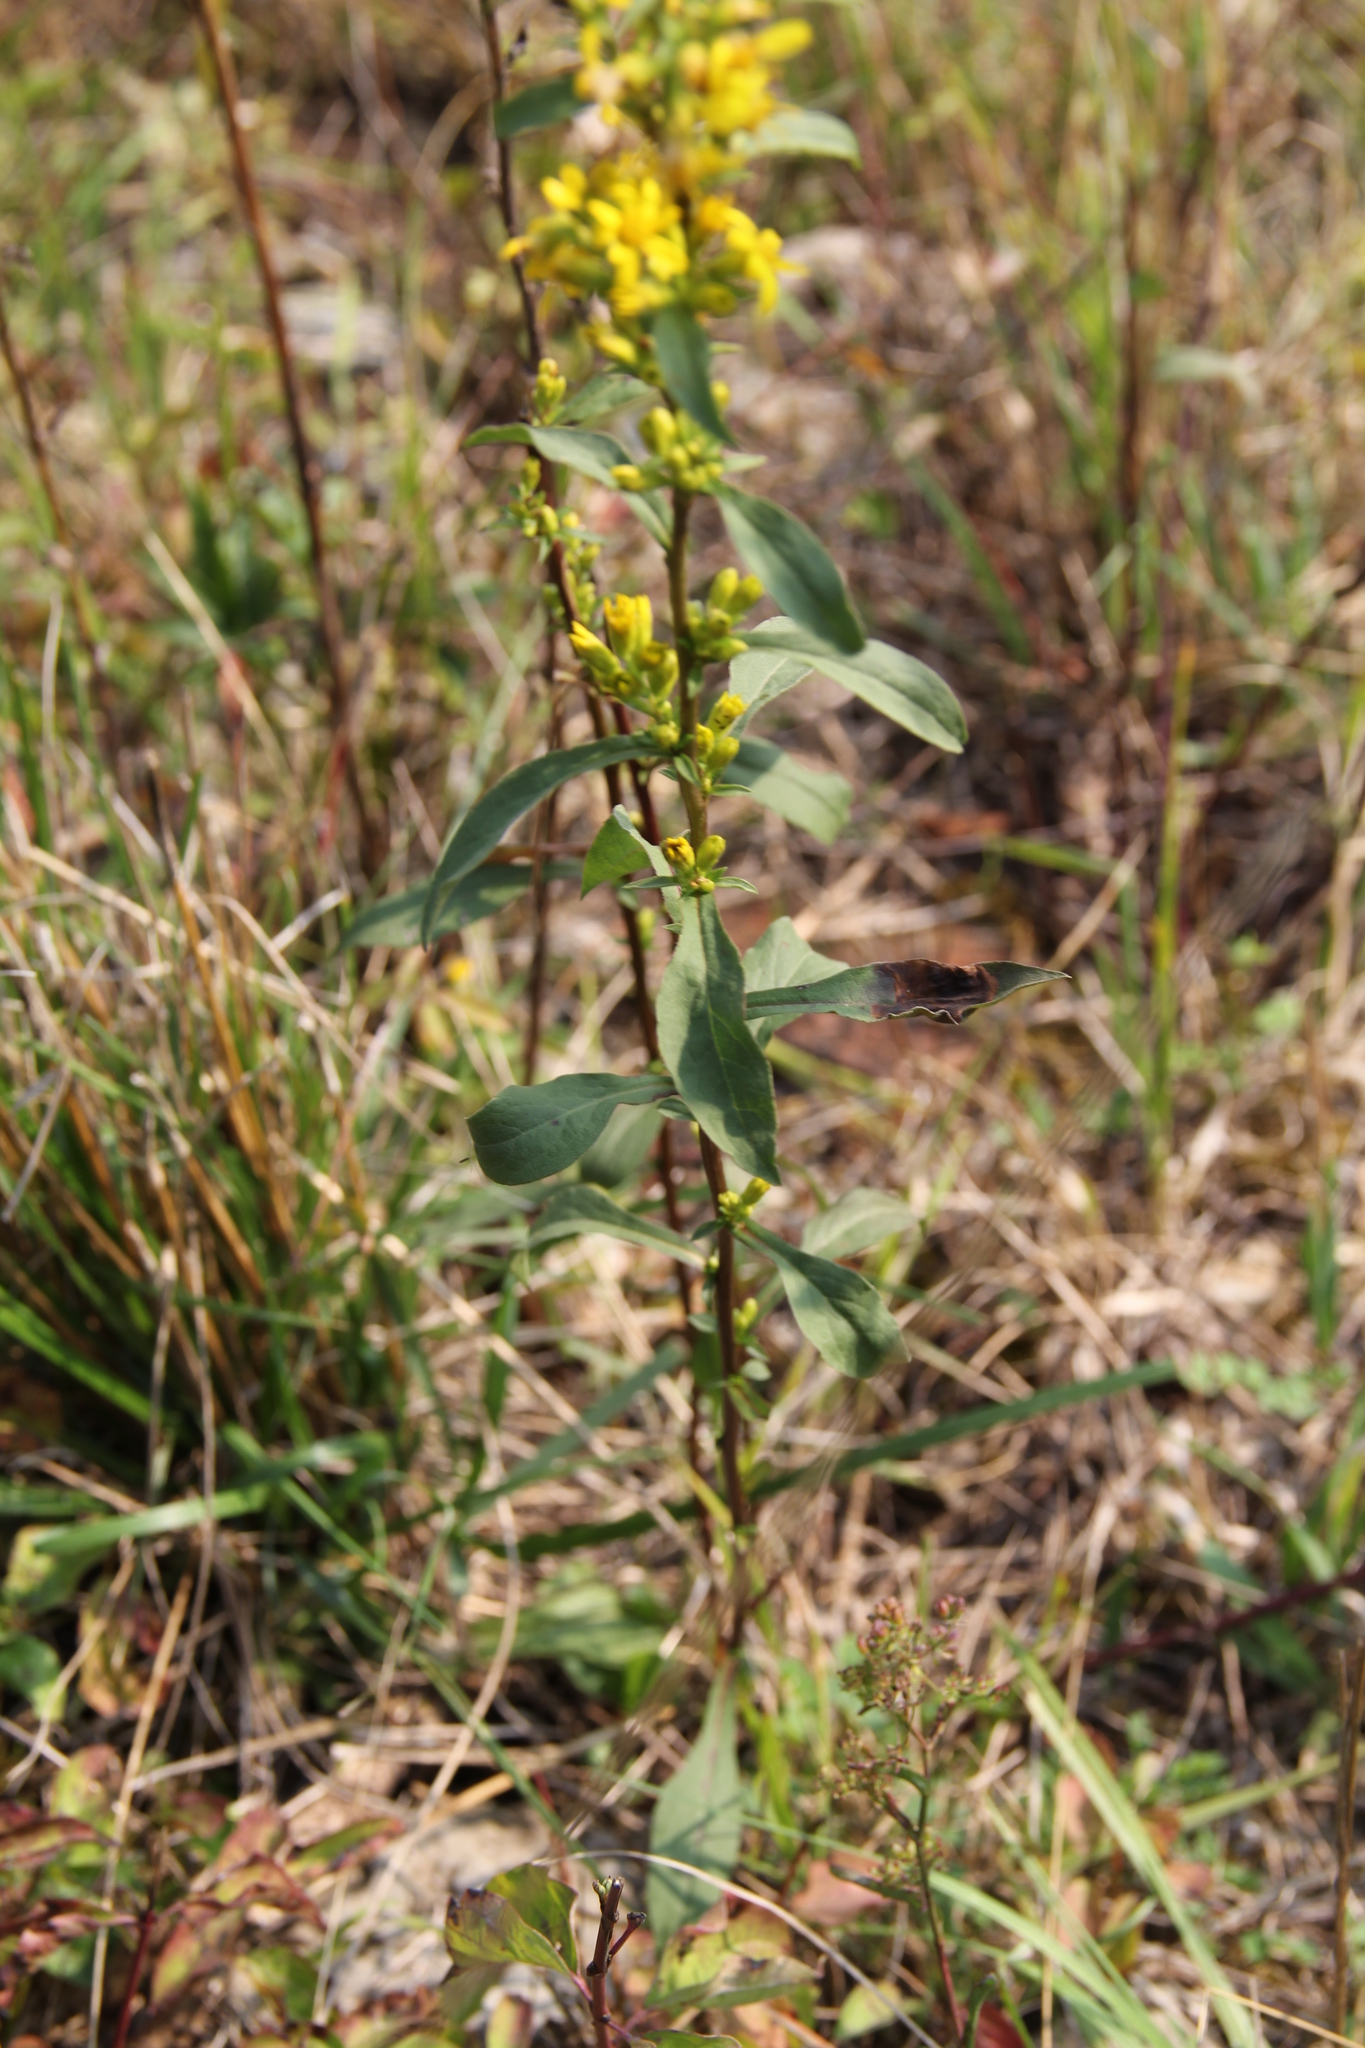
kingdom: Plantae
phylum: Tracheophyta
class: Magnoliopsida
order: Asterales
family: Asteraceae
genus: Solidago
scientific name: Solidago virgaurea
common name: Goldenrod
